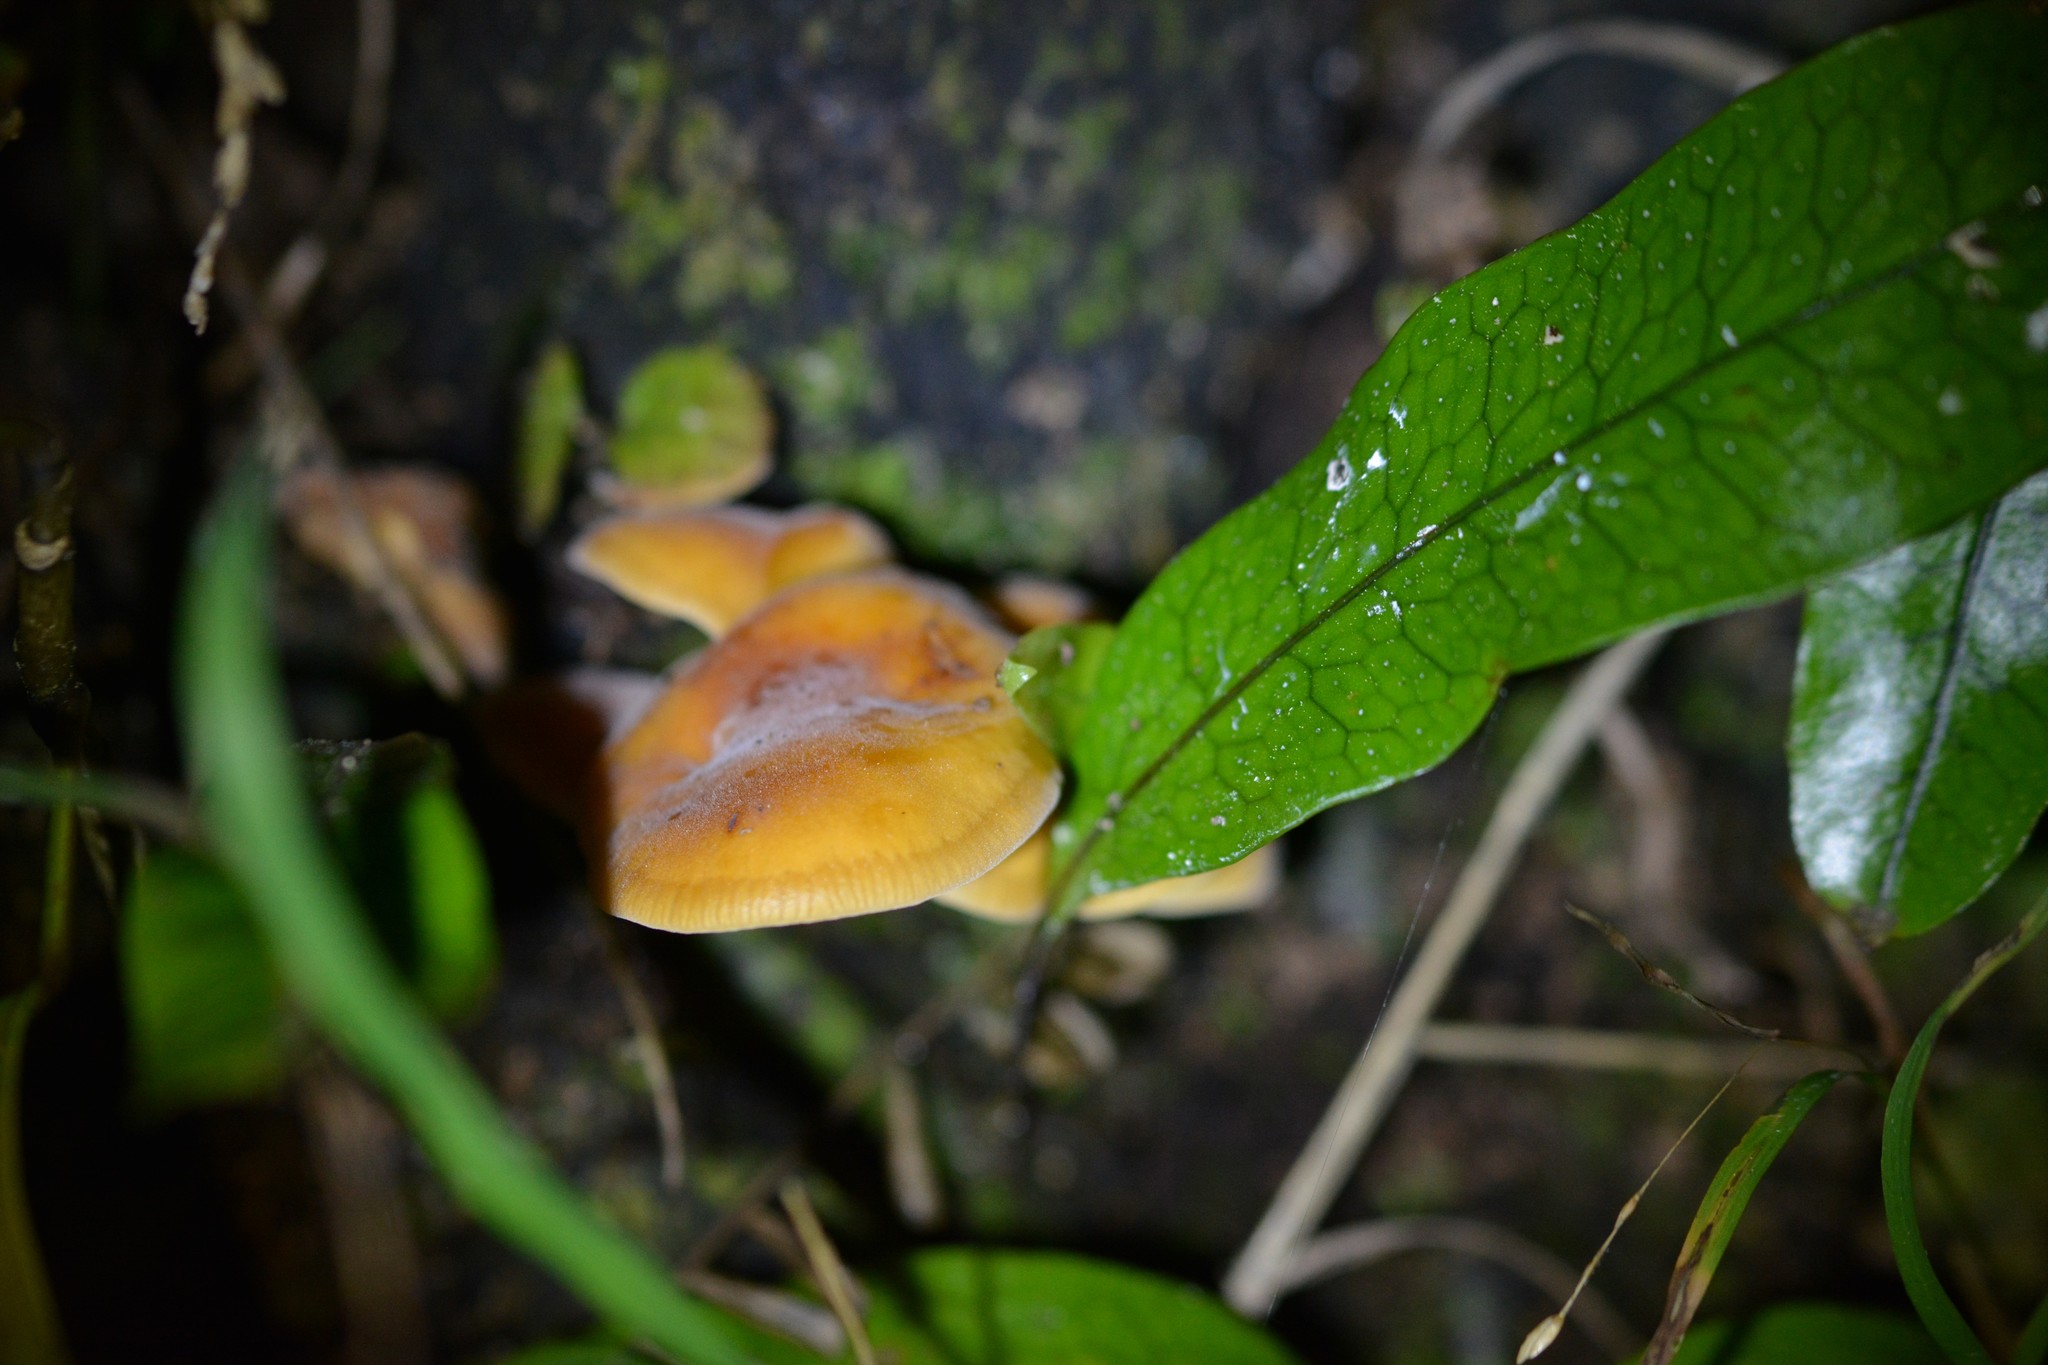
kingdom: Fungi
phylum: Basidiomycota
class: Agaricomycetes
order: Agaricales
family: Physalacriaceae
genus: Flammulina
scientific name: Flammulina velutipes
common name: Velvet shank
